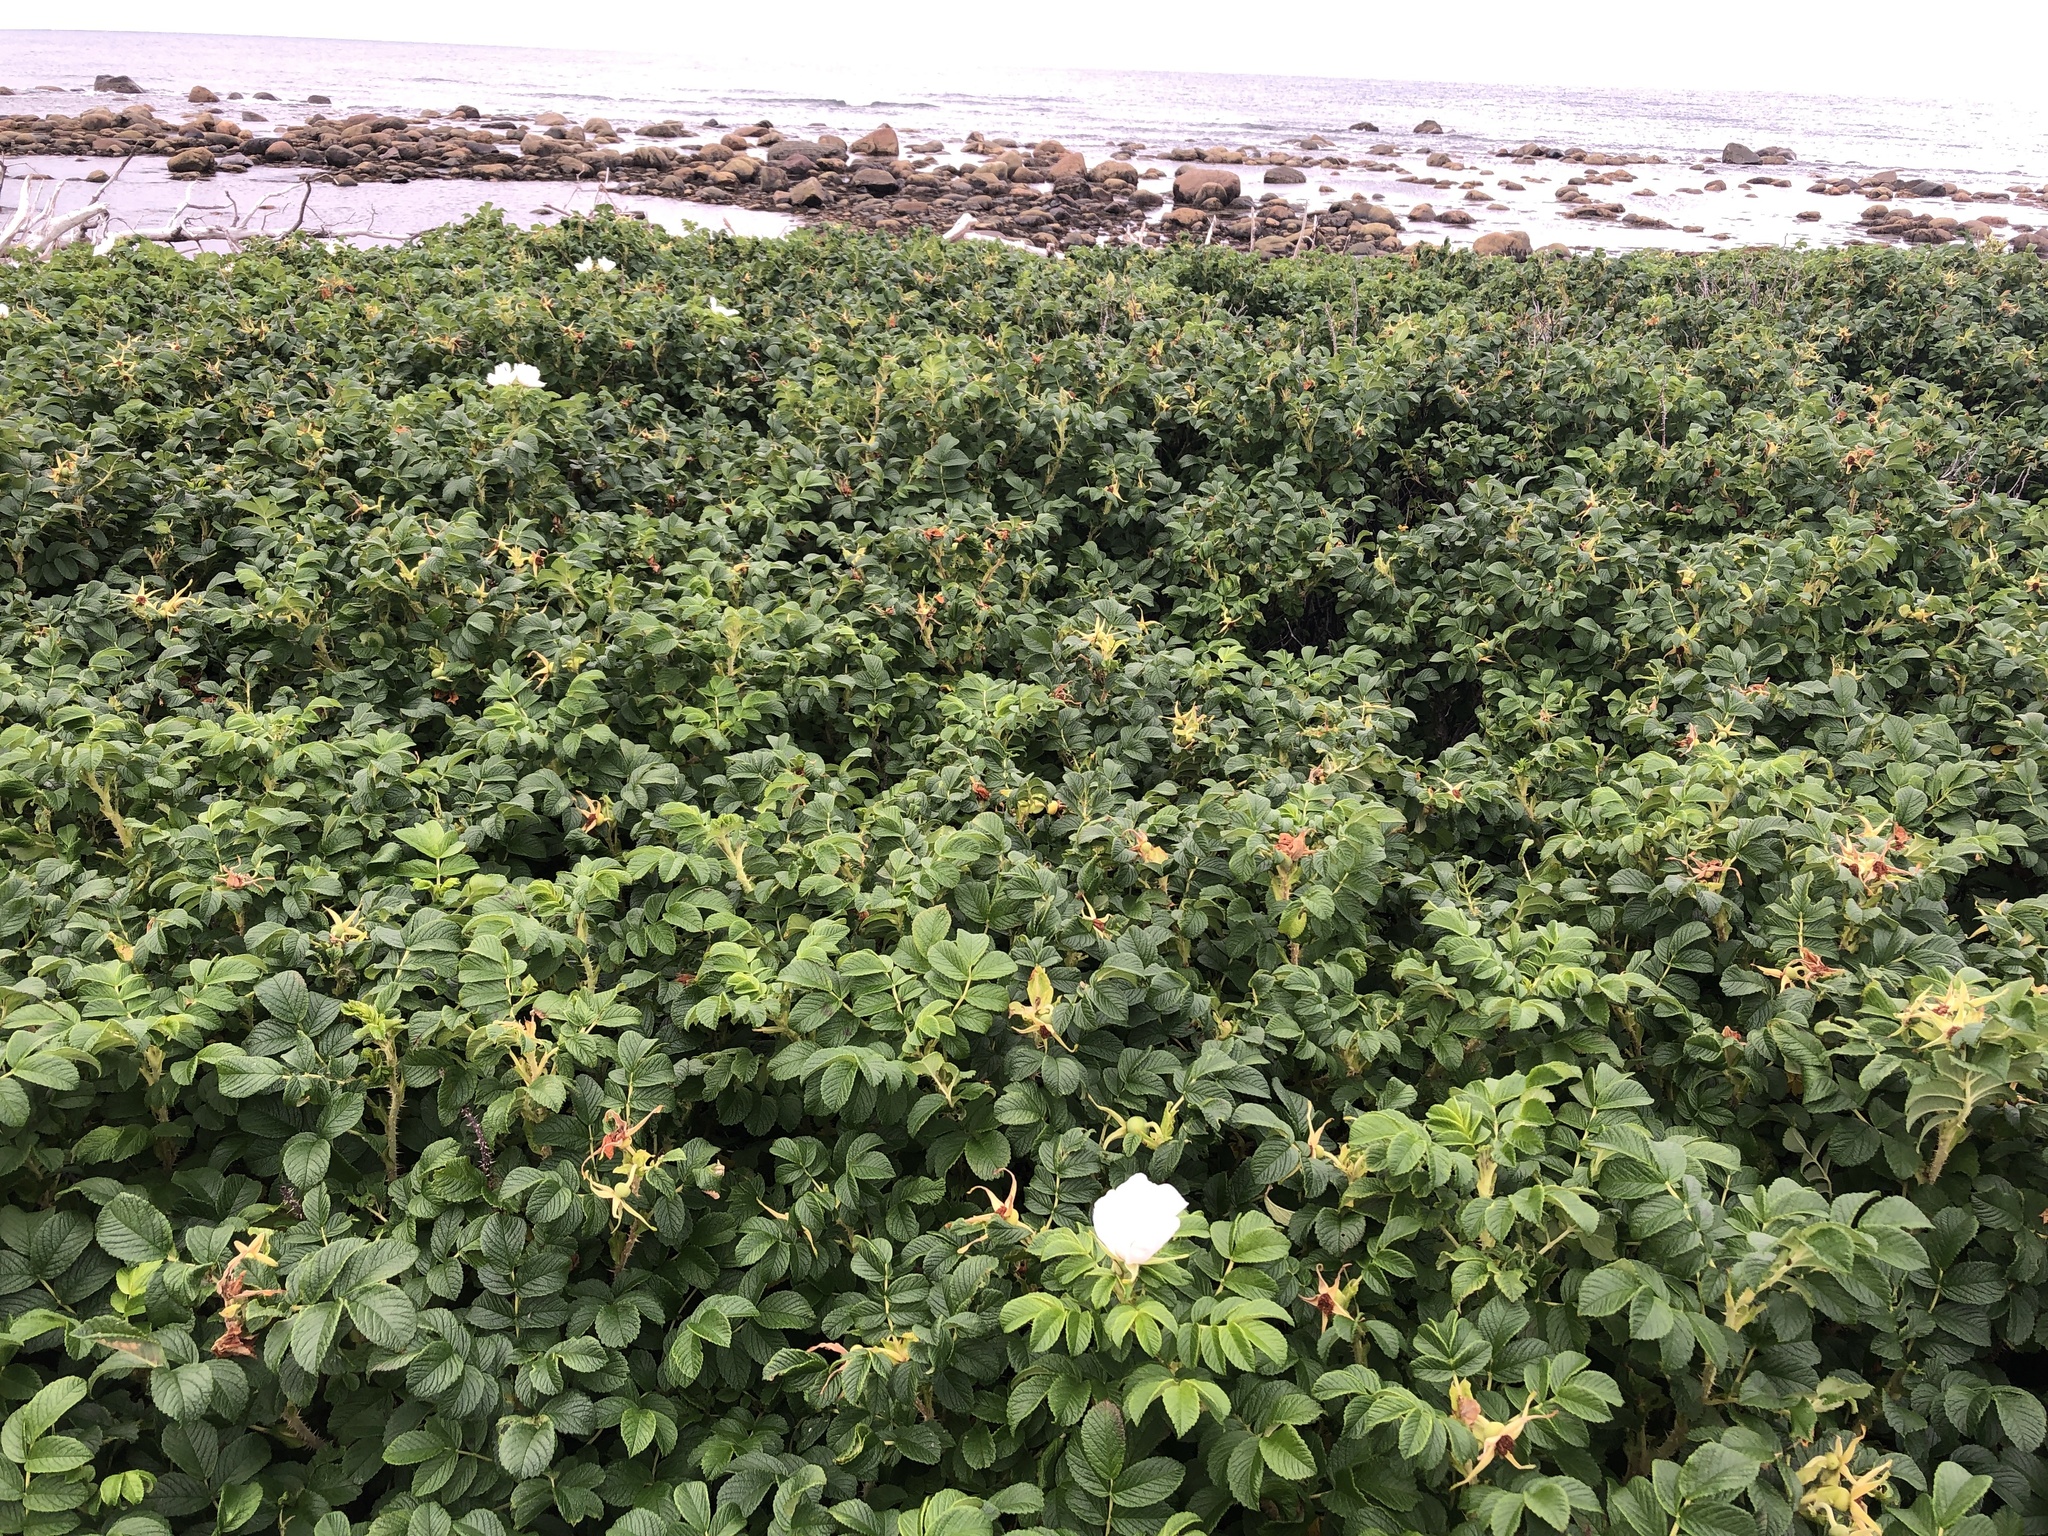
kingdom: Plantae
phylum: Tracheophyta
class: Magnoliopsida
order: Rosales
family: Rosaceae
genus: Rosa
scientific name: Rosa rugosa
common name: Japanese rose
